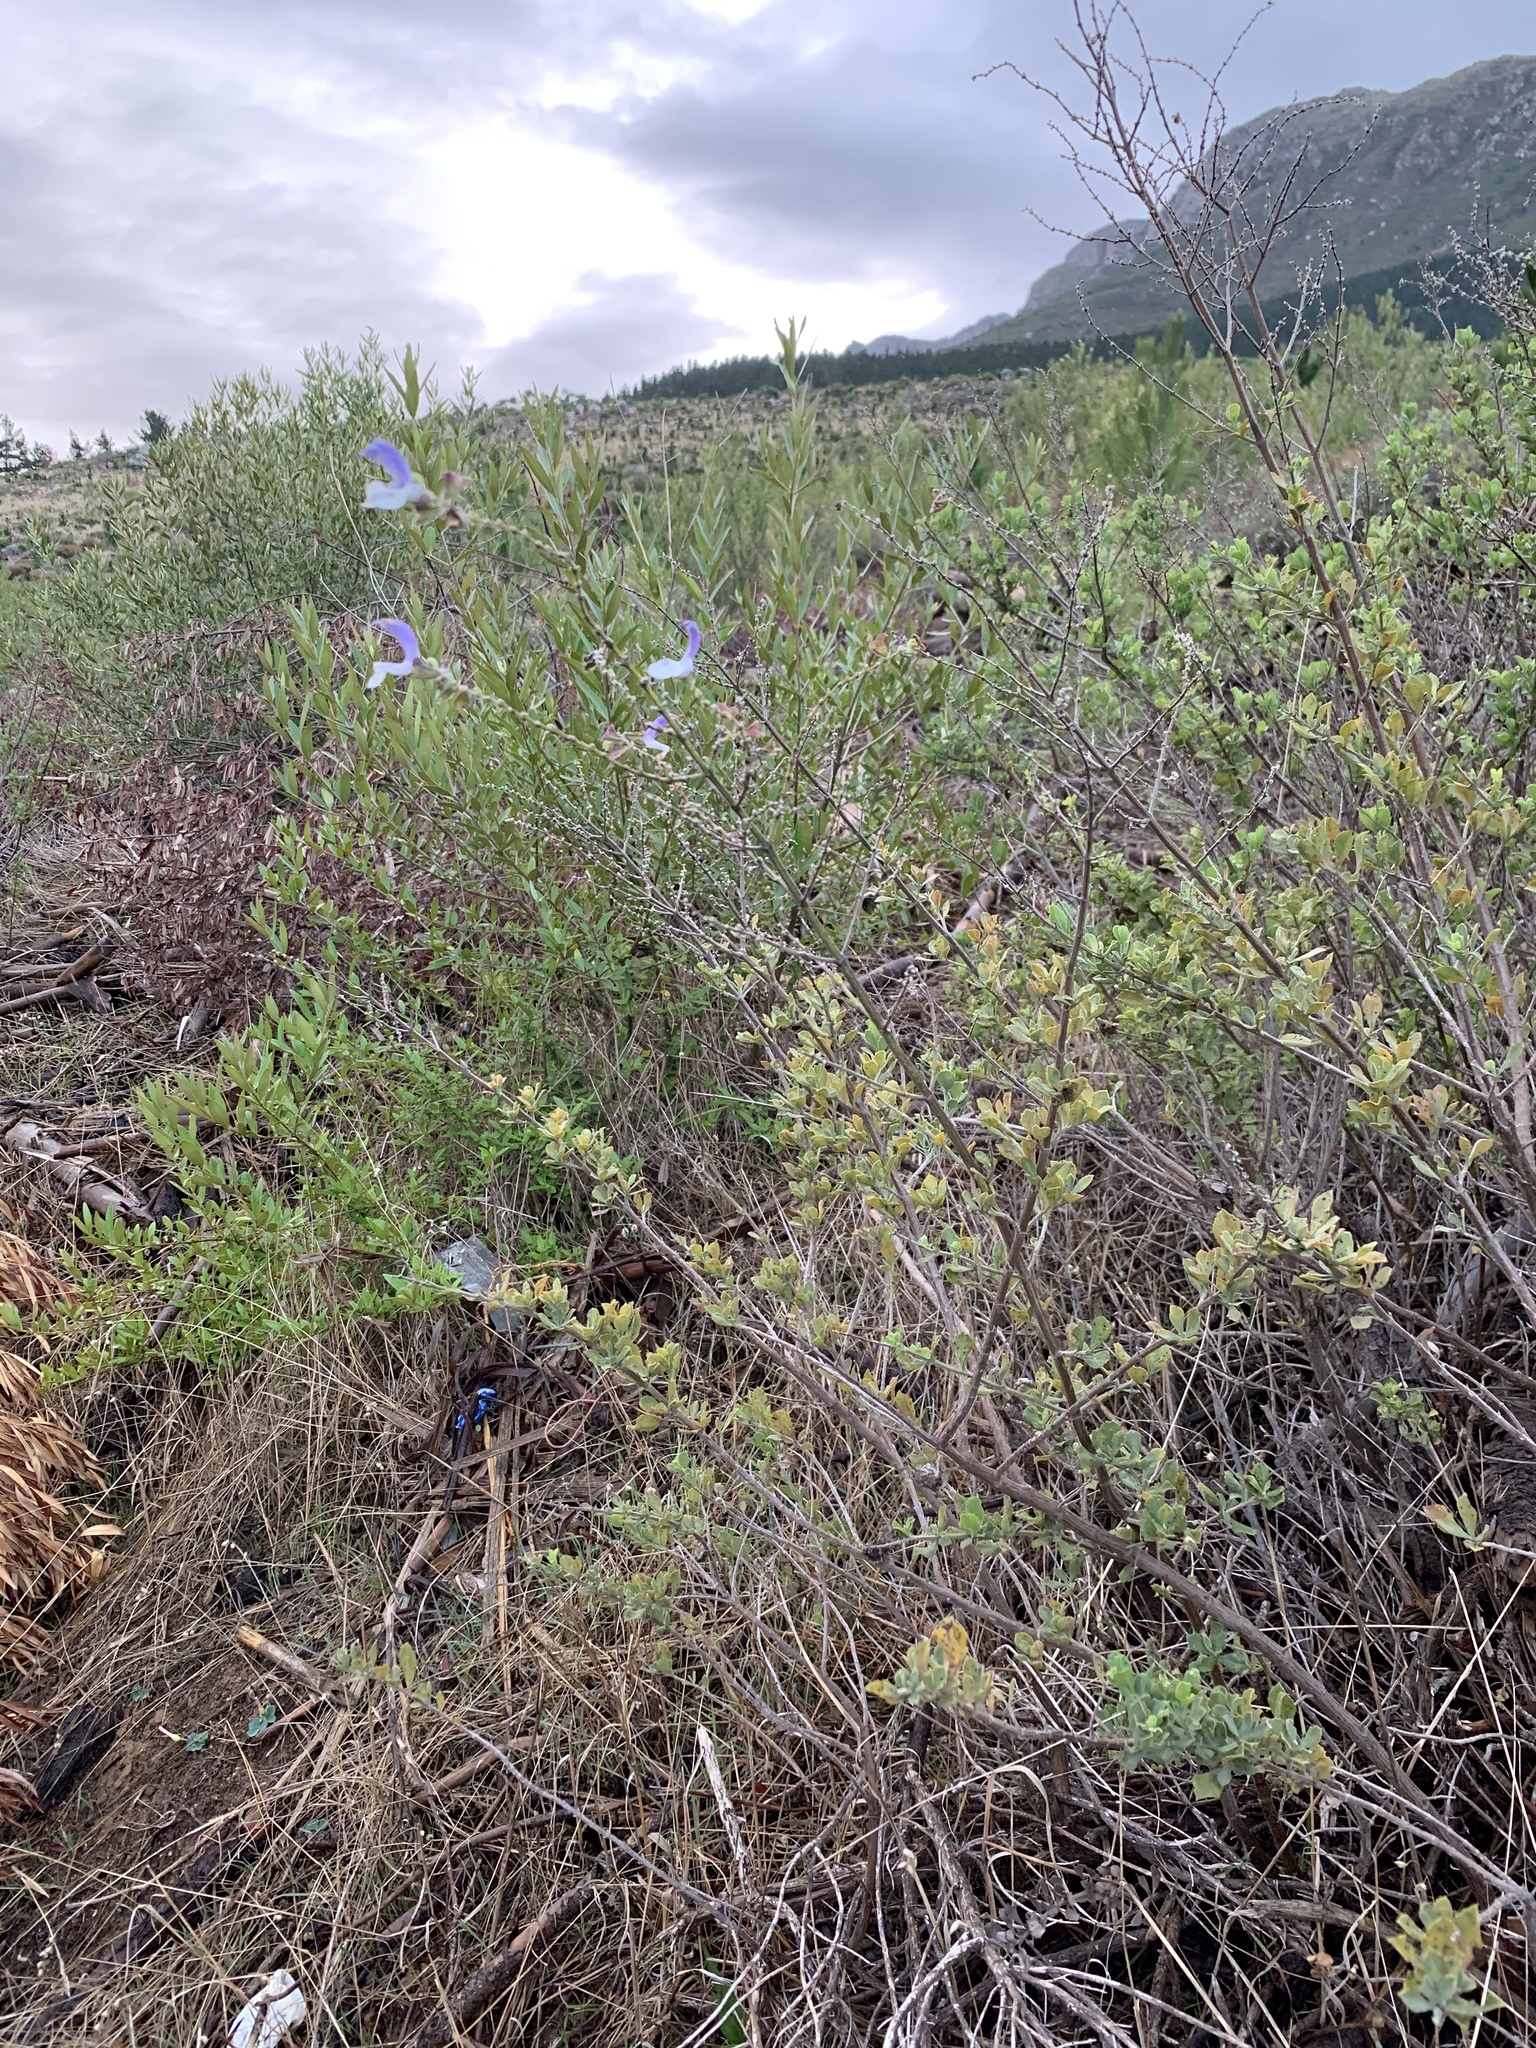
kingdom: Plantae
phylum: Tracheophyta
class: Magnoliopsida
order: Lamiales
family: Lamiaceae
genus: Salvia
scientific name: Salvia chamelaeagnea
